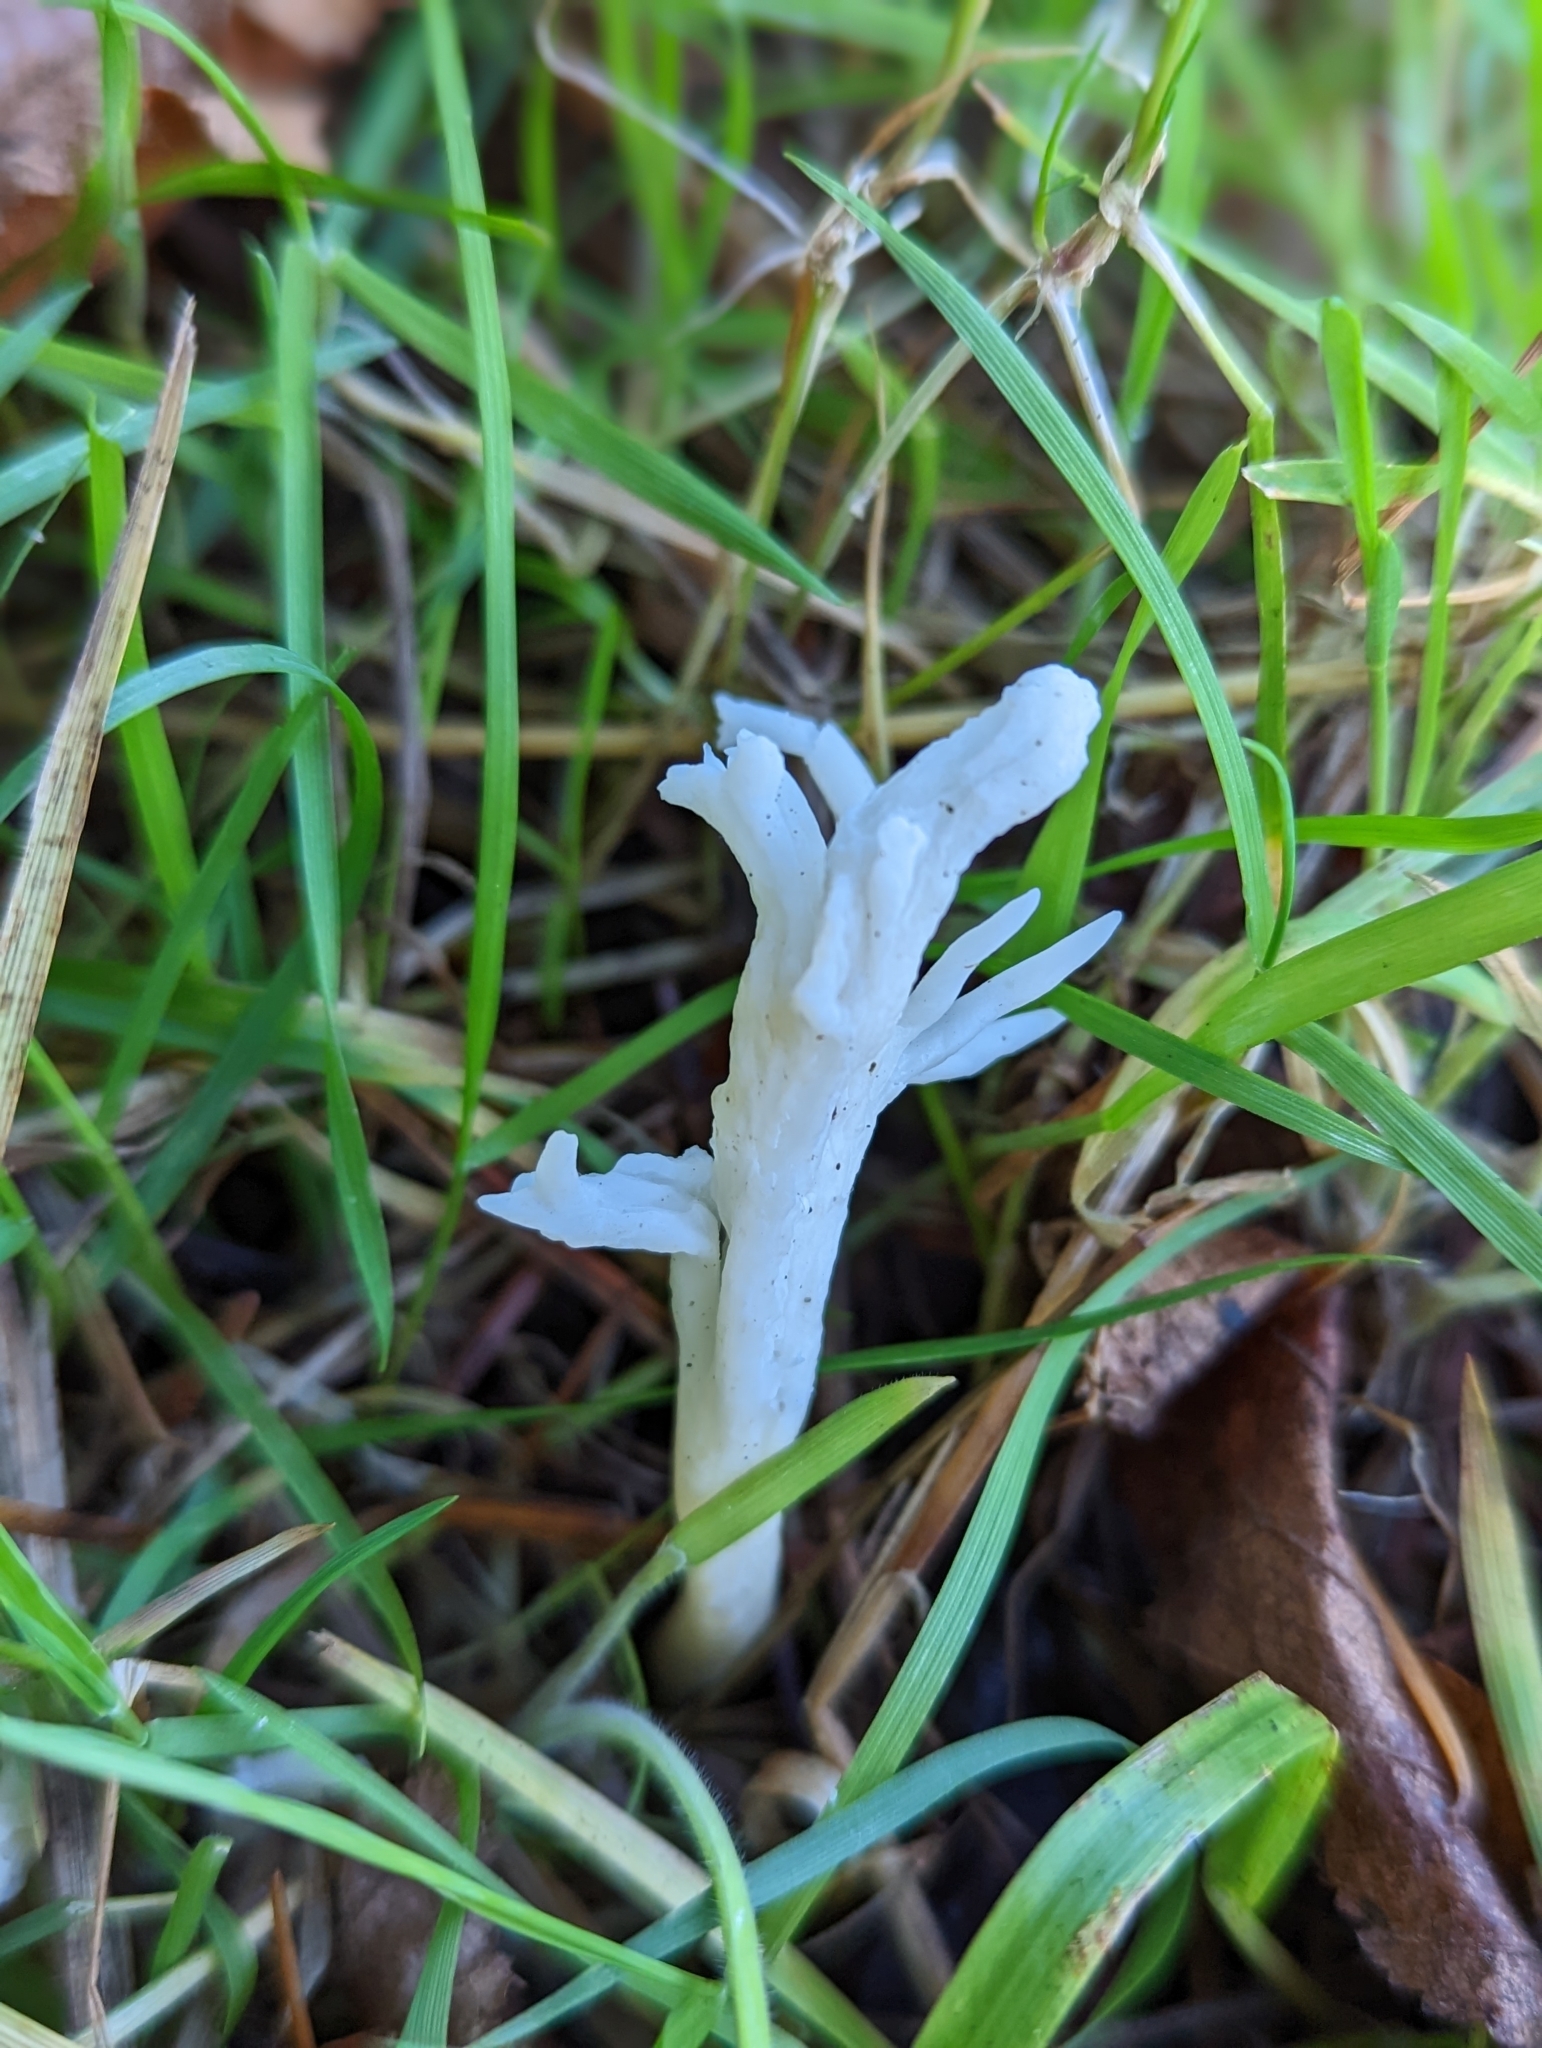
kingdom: Fungi
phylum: Basidiomycota
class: Agaricomycetes
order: Cantharellales
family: Hydnaceae
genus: Clavulina
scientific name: Clavulina rugosa
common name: Wrinkled club
